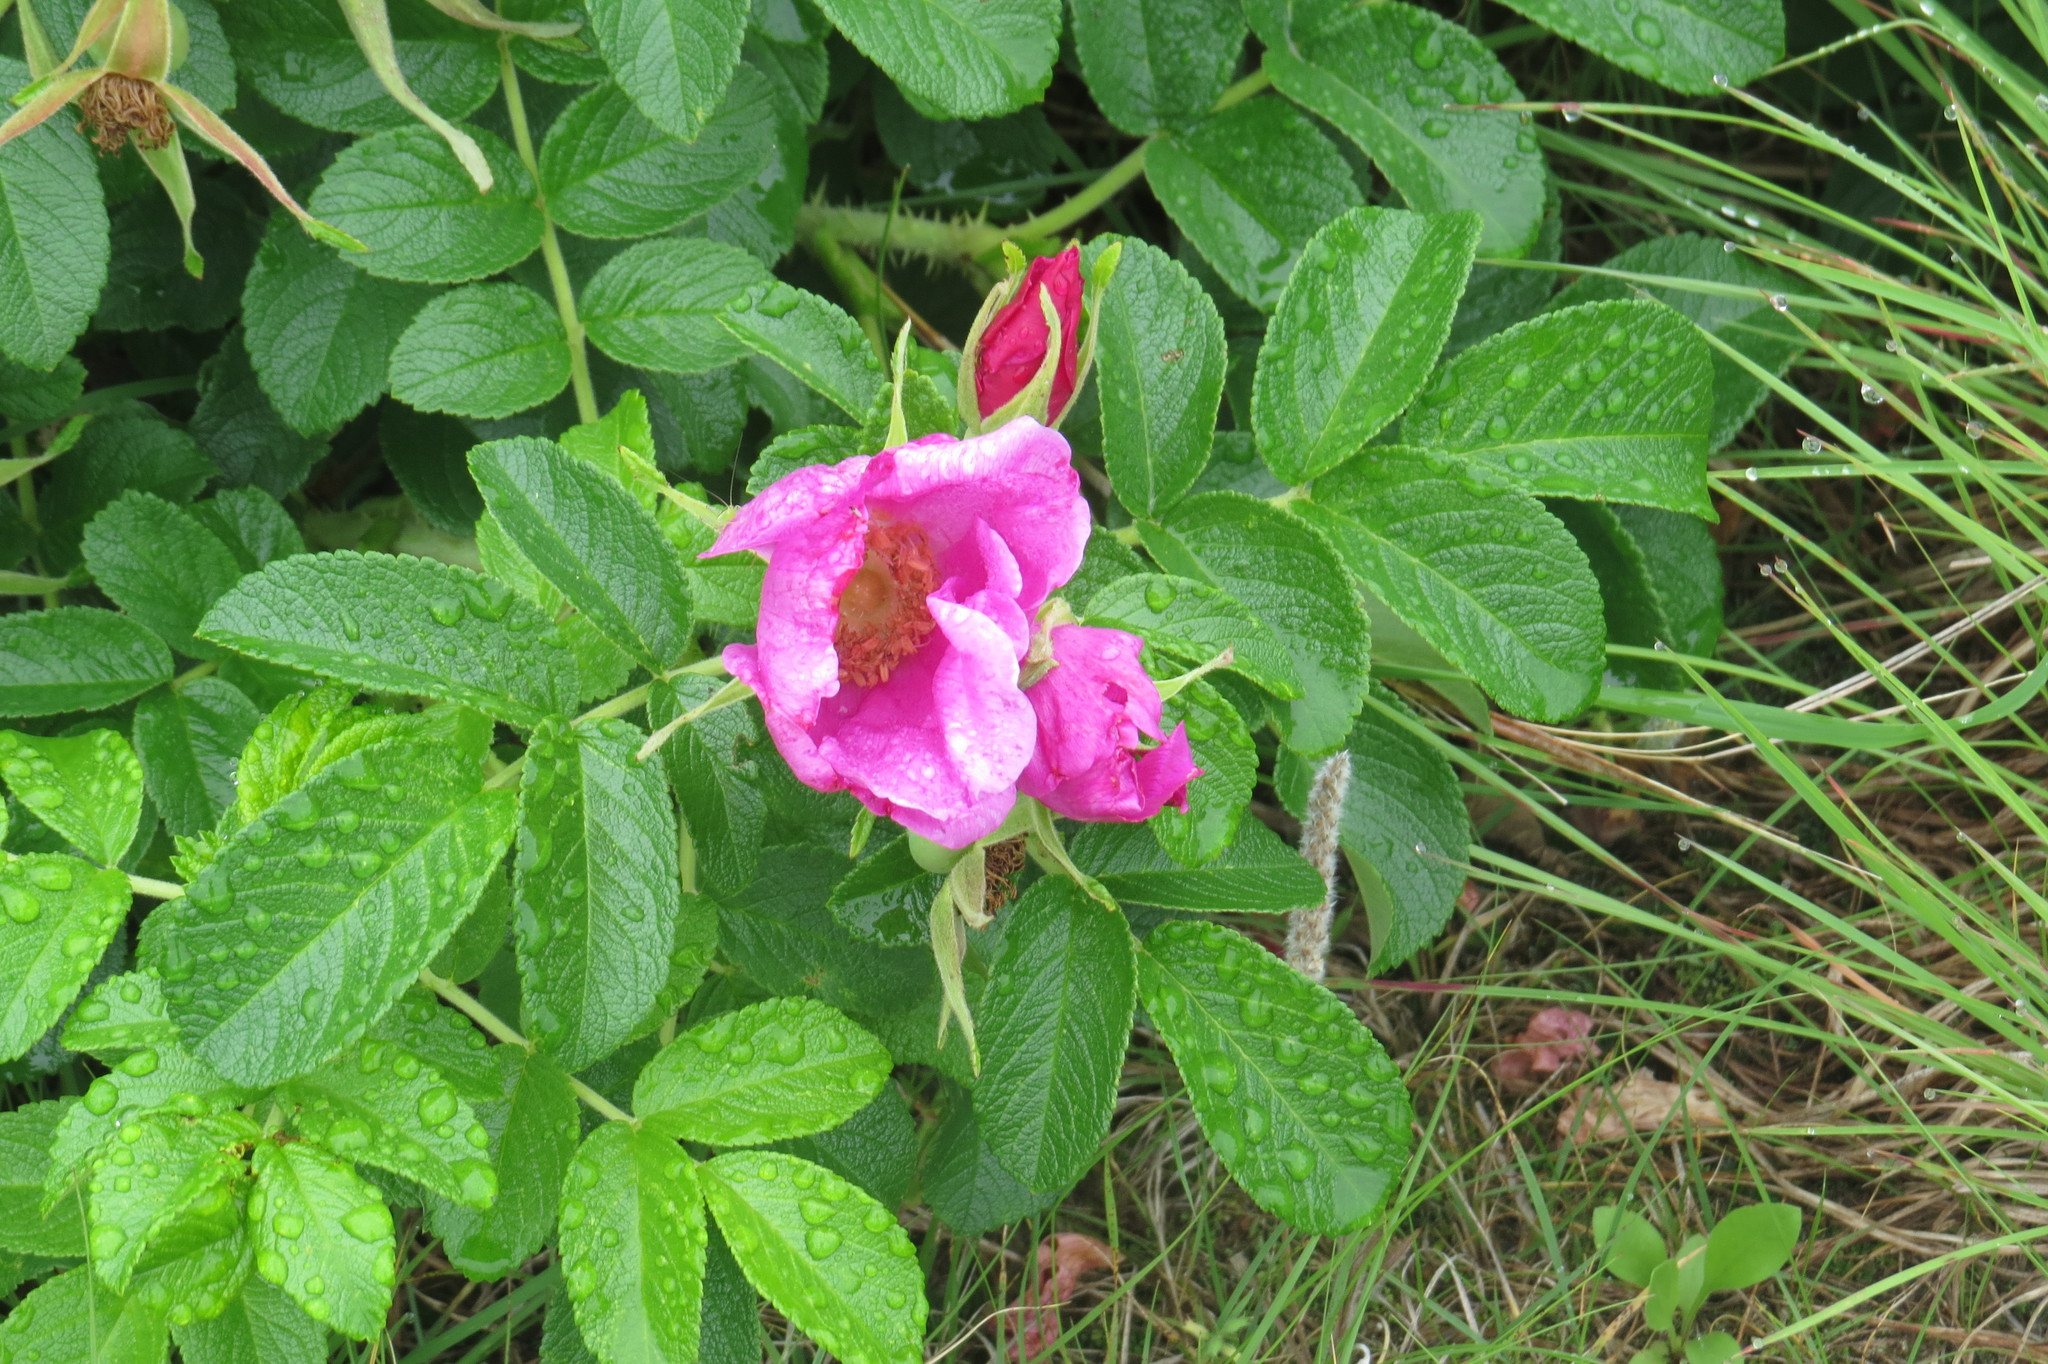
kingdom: Plantae
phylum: Tracheophyta
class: Magnoliopsida
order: Rosales
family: Rosaceae
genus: Rosa
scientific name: Rosa rugosa
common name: Japanese rose
